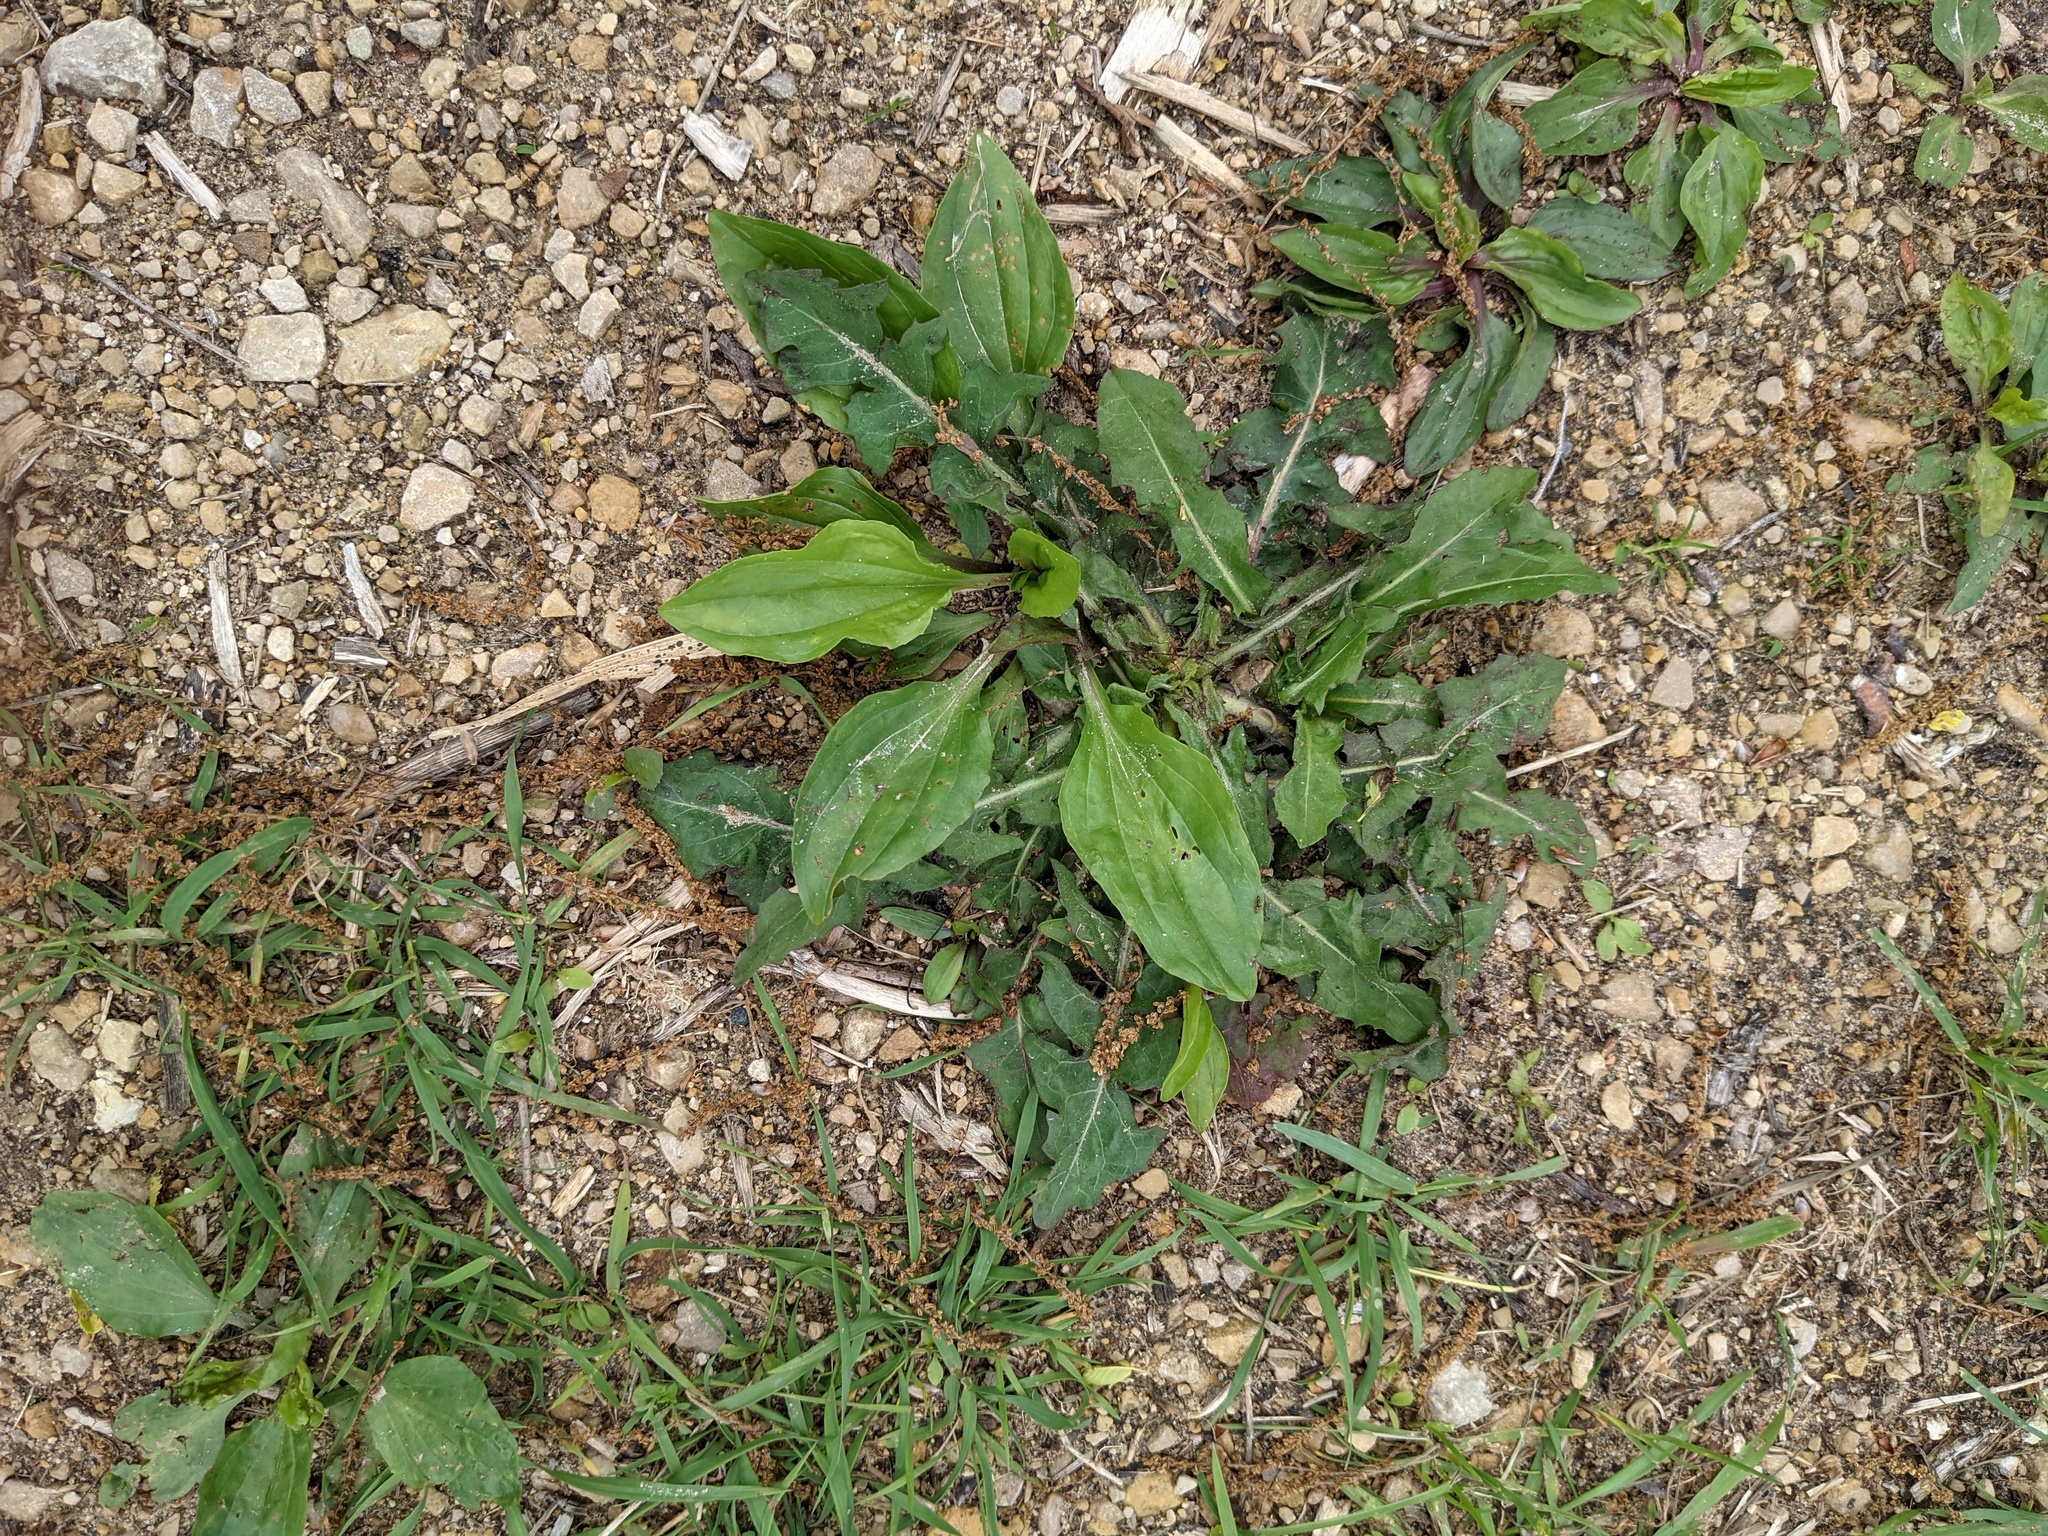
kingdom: Plantae
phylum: Tracheophyta
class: Magnoliopsida
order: Lamiales
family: Plantaginaceae
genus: Plantago
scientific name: Plantago rugelii
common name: American plantain
